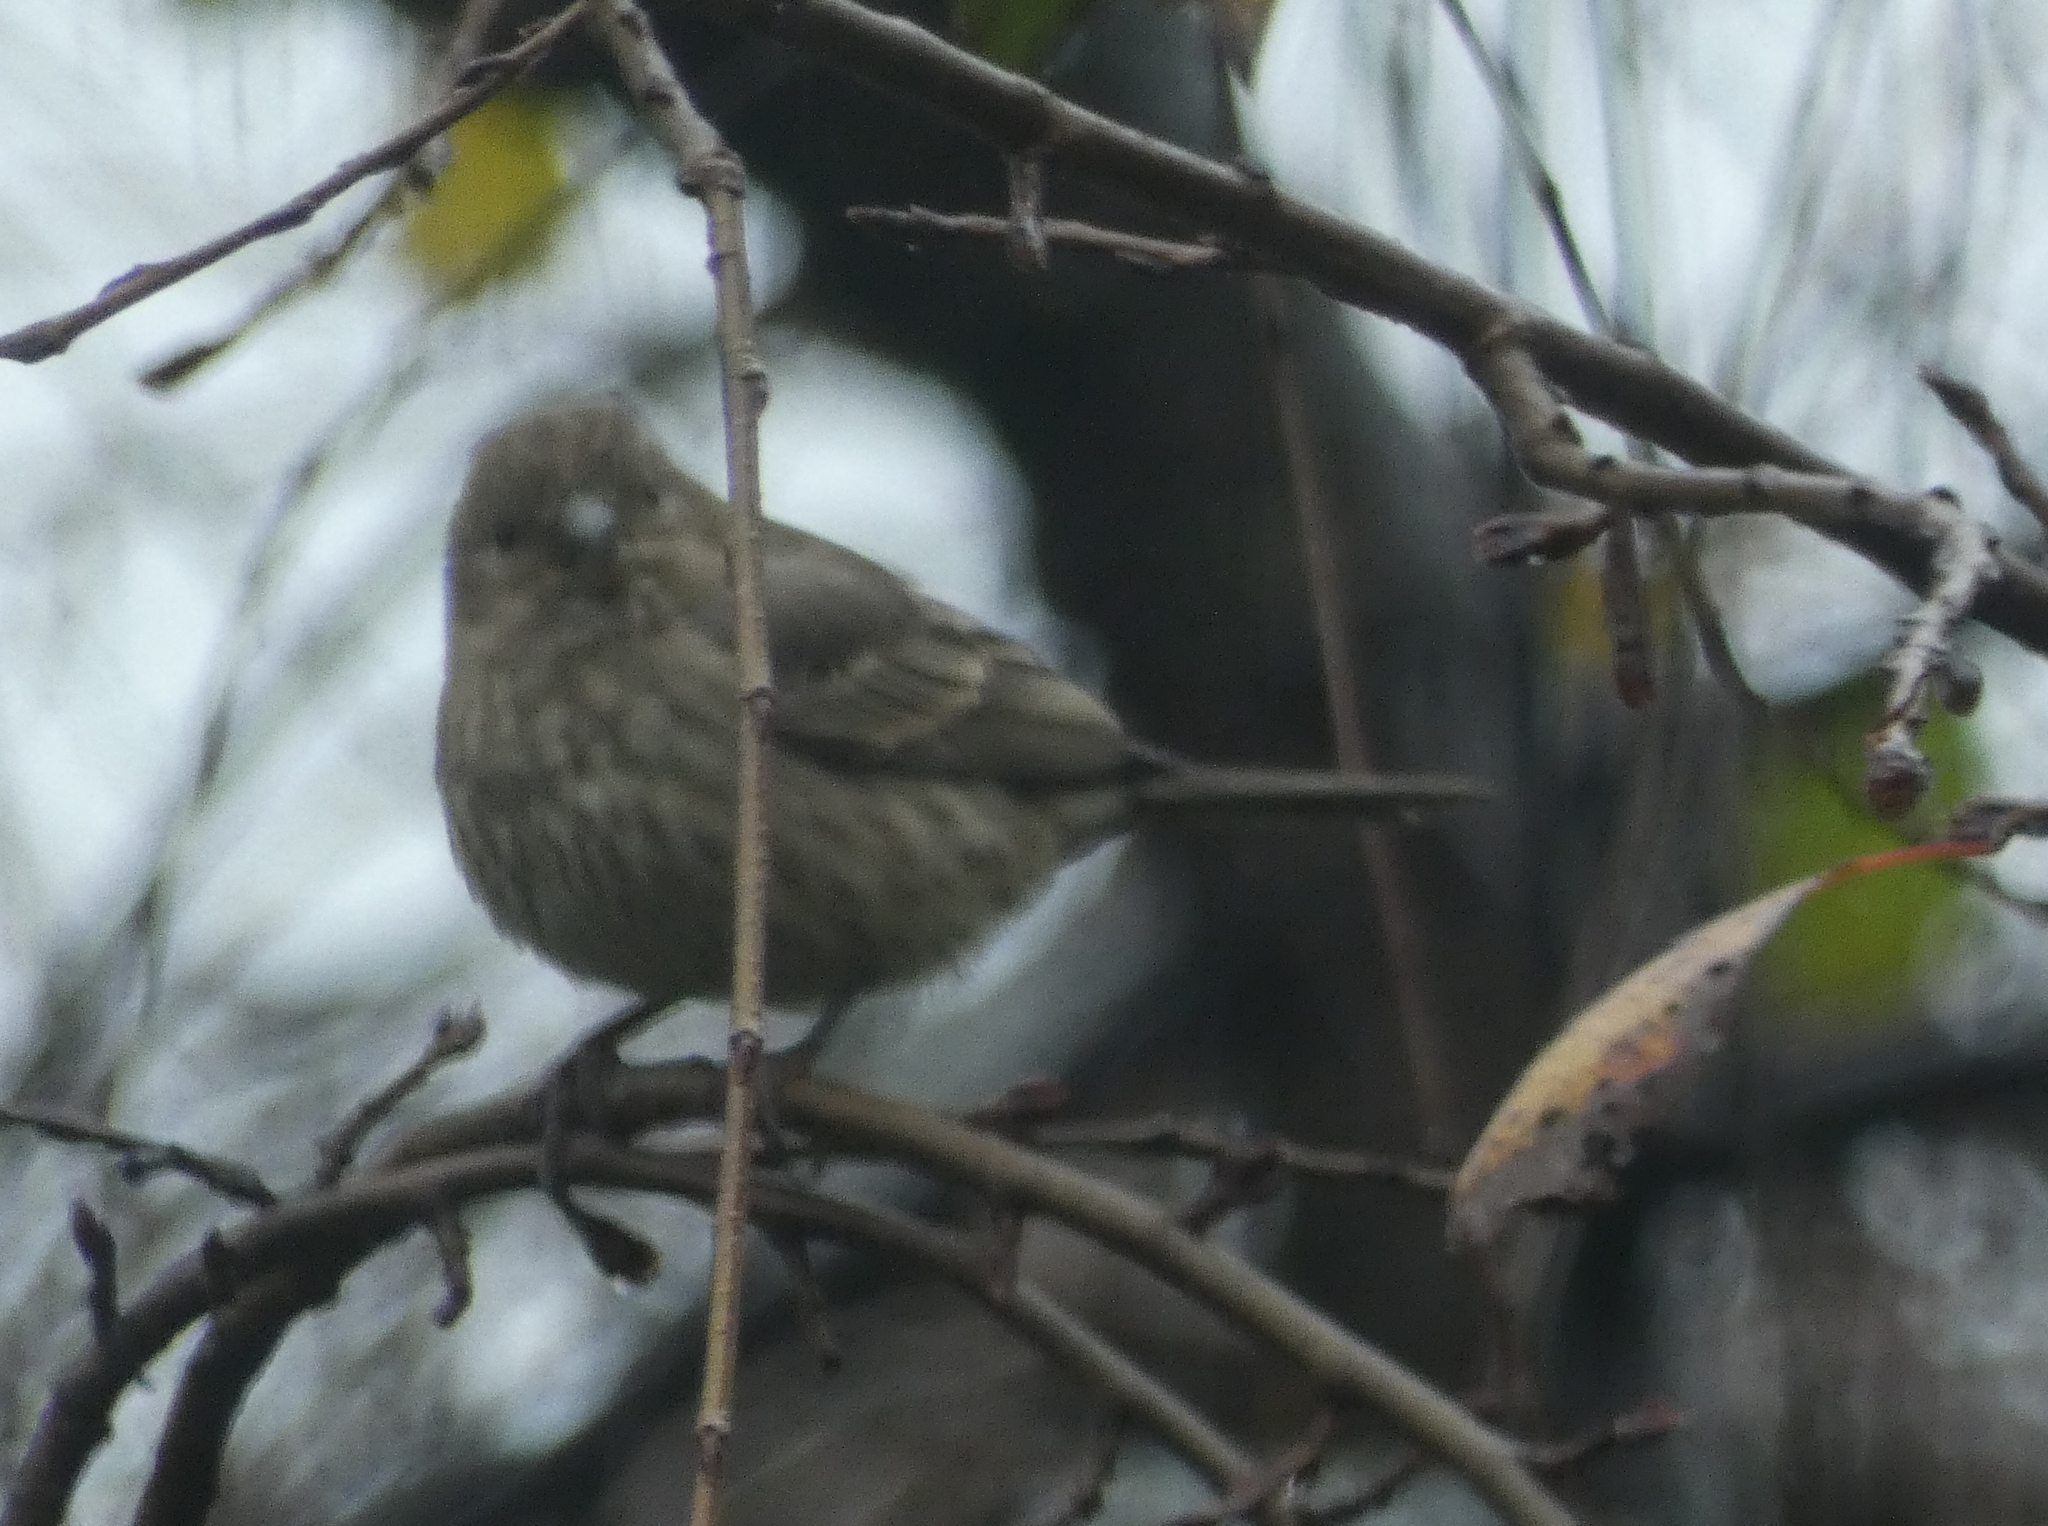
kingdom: Animalia
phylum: Chordata
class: Aves
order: Passeriformes
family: Fringillidae
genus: Haemorhous
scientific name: Haemorhous mexicanus
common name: House finch
